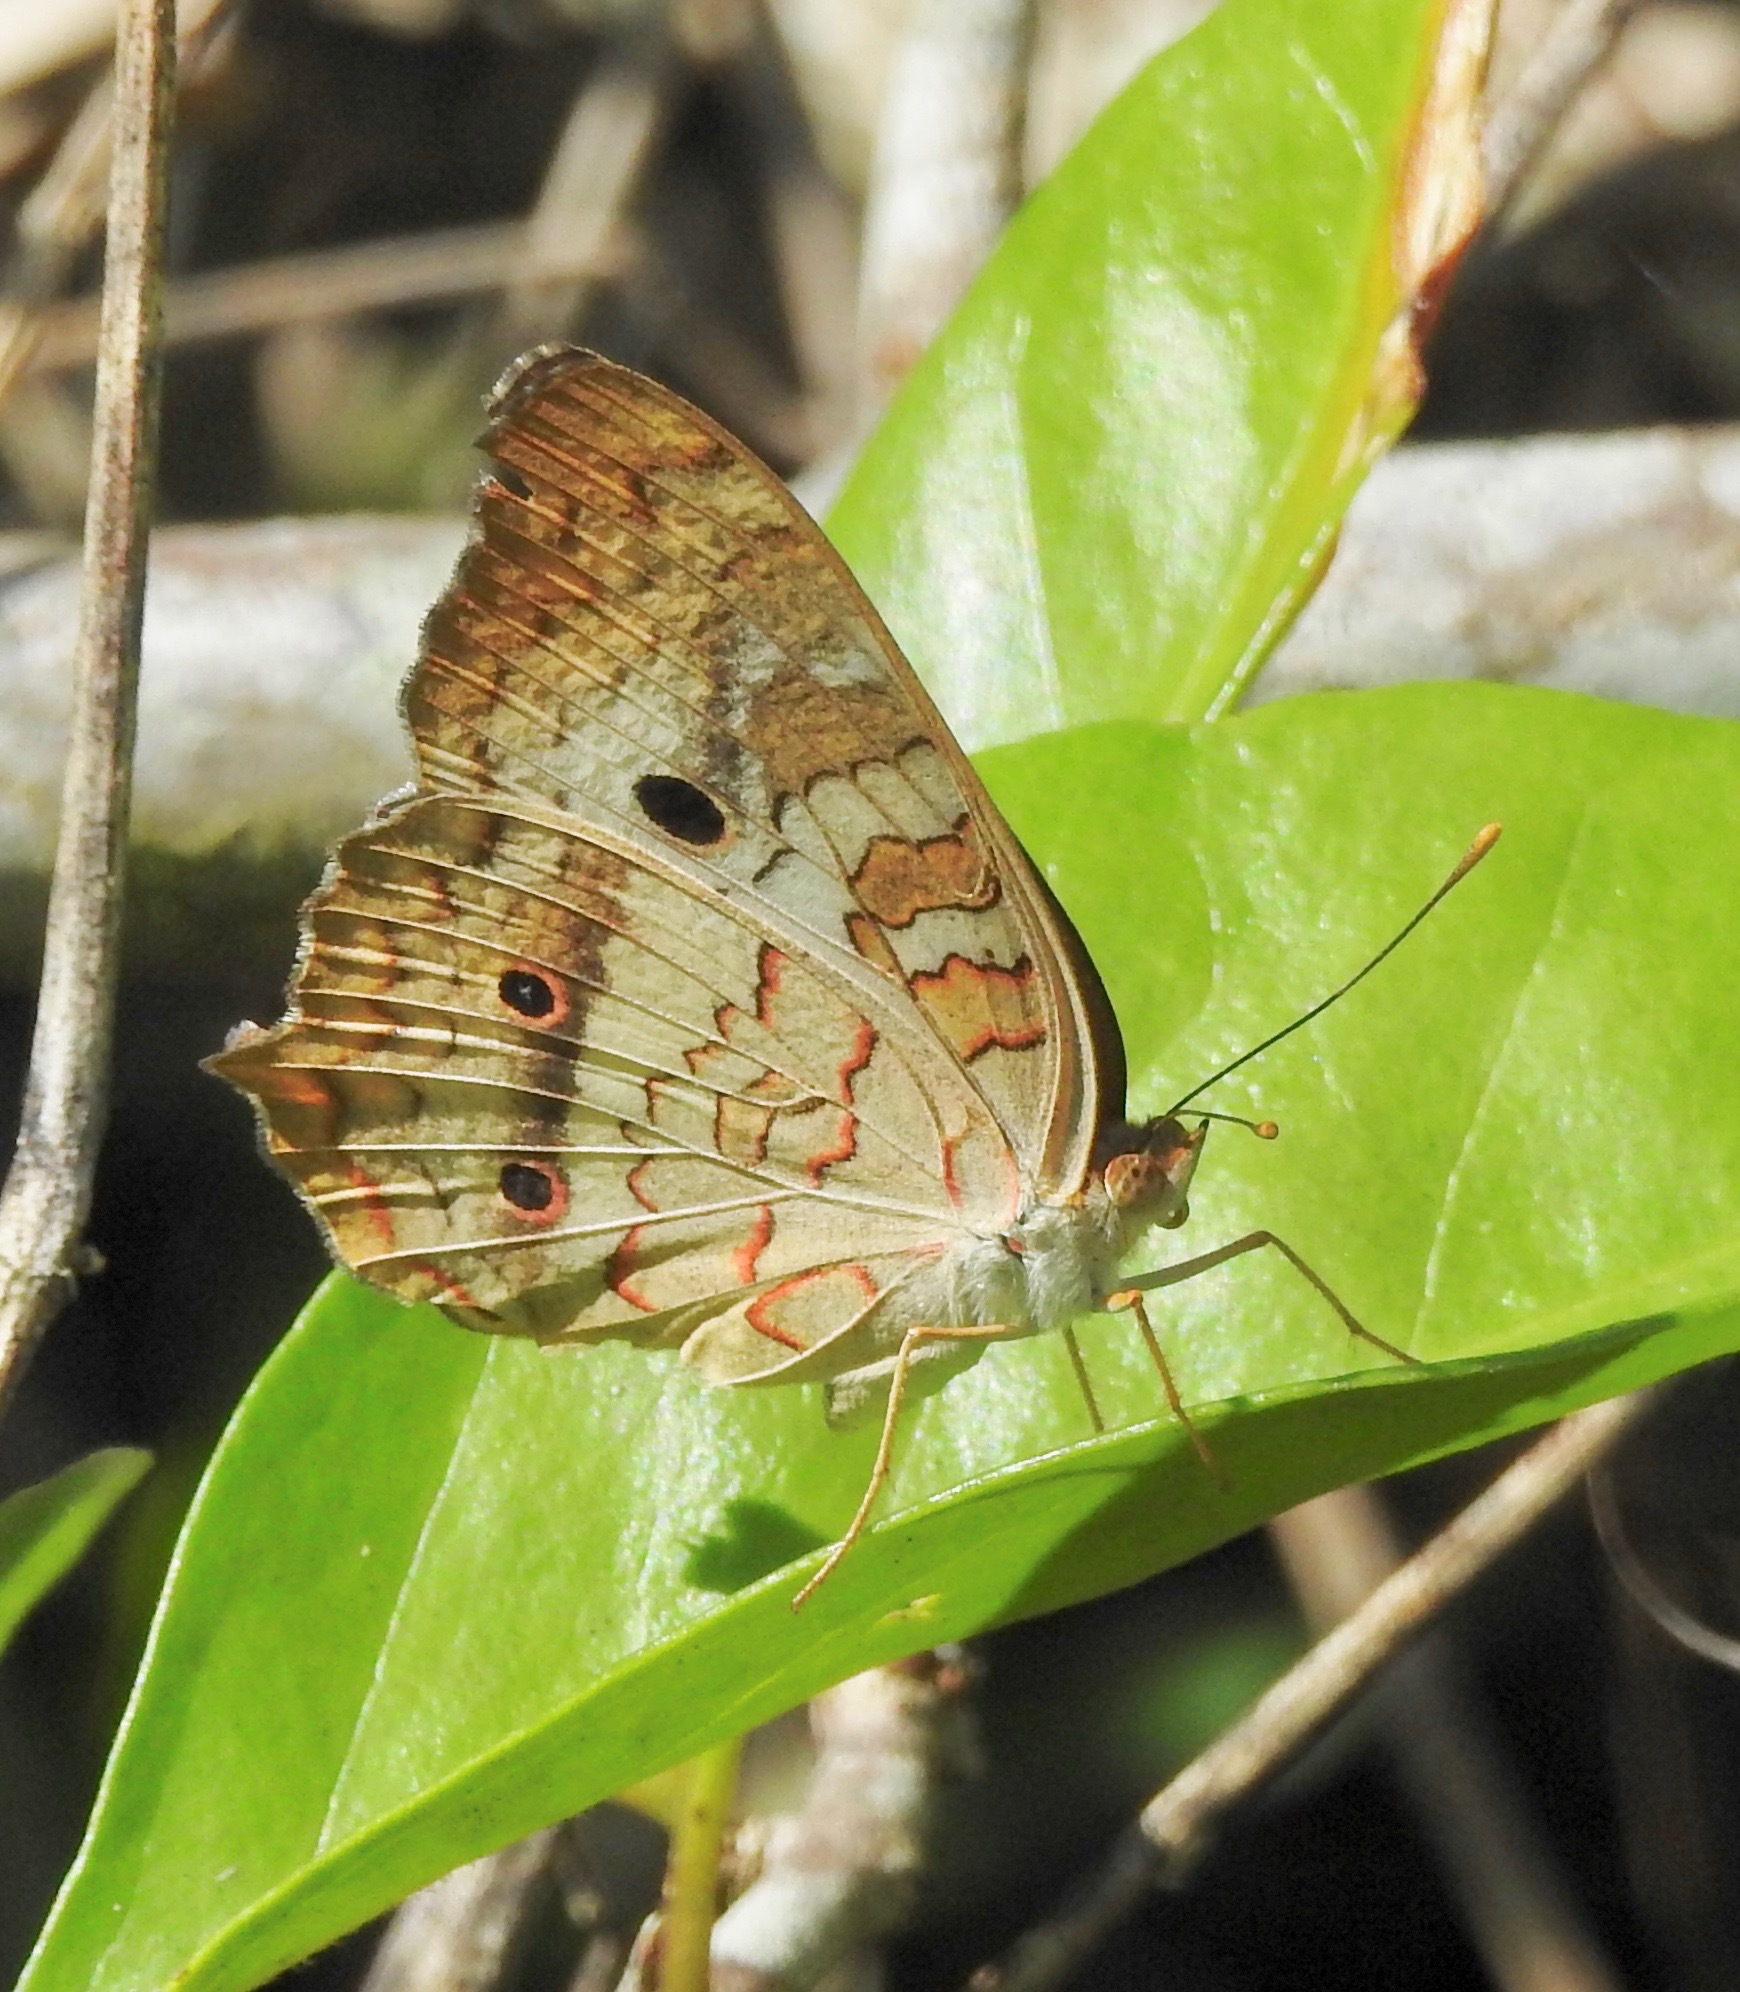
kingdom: Animalia
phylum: Arthropoda
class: Insecta
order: Lepidoptera
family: Nymphalidae
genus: Anartia
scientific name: Anartia jatrophae
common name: White peacock
